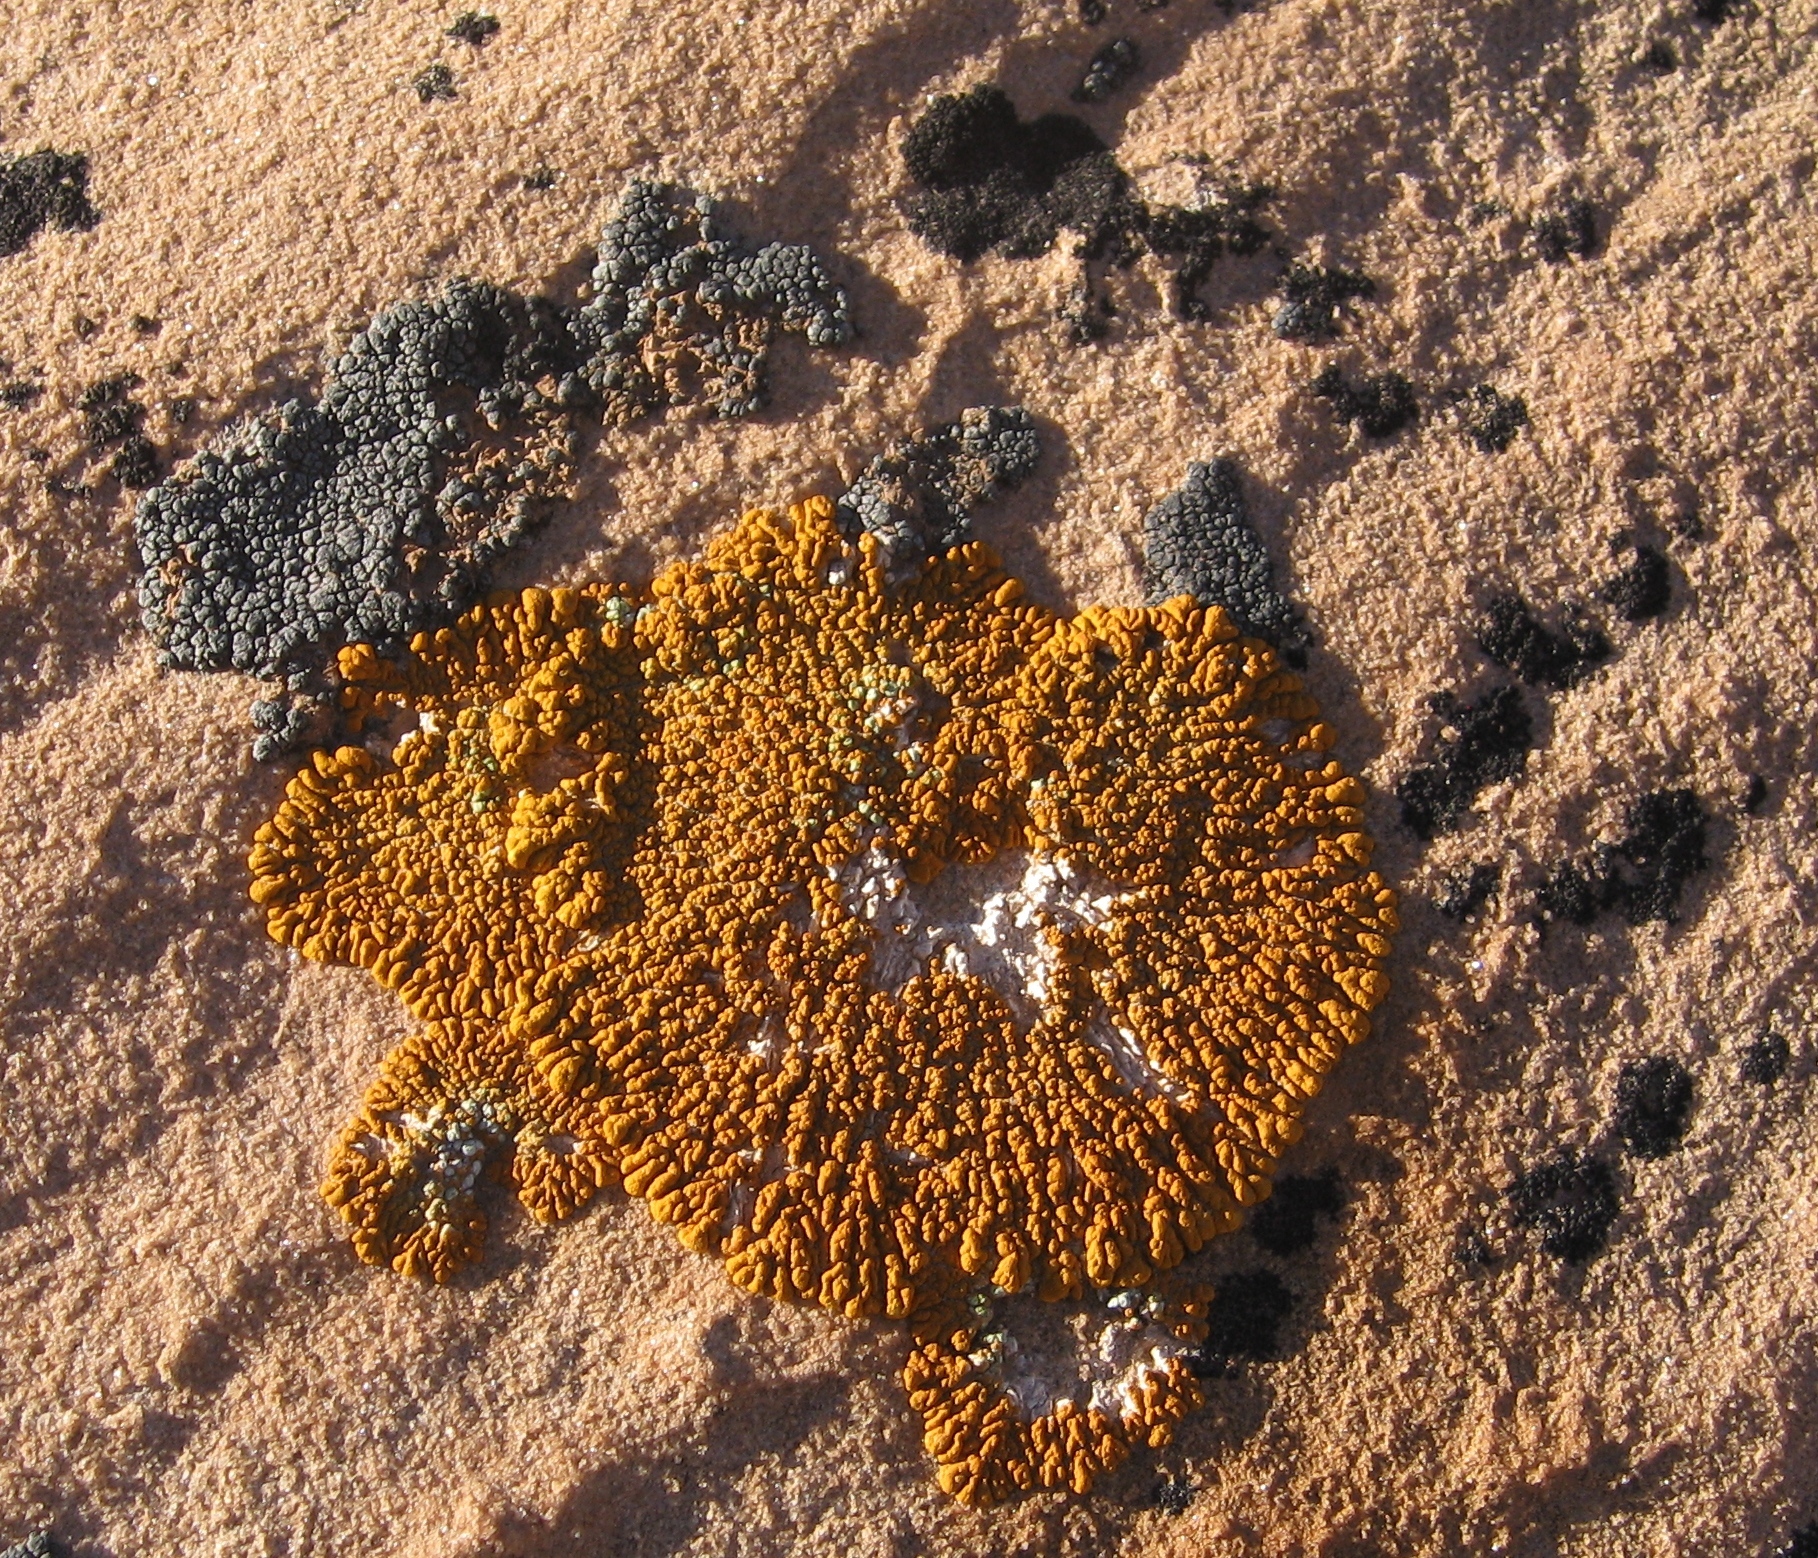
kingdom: Fungi
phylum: Ascomycota
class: Lecanoromycetes
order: Teloschistales
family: Teloschistaceae
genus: Golubkovia
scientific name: Golubkovia trachyphylla
